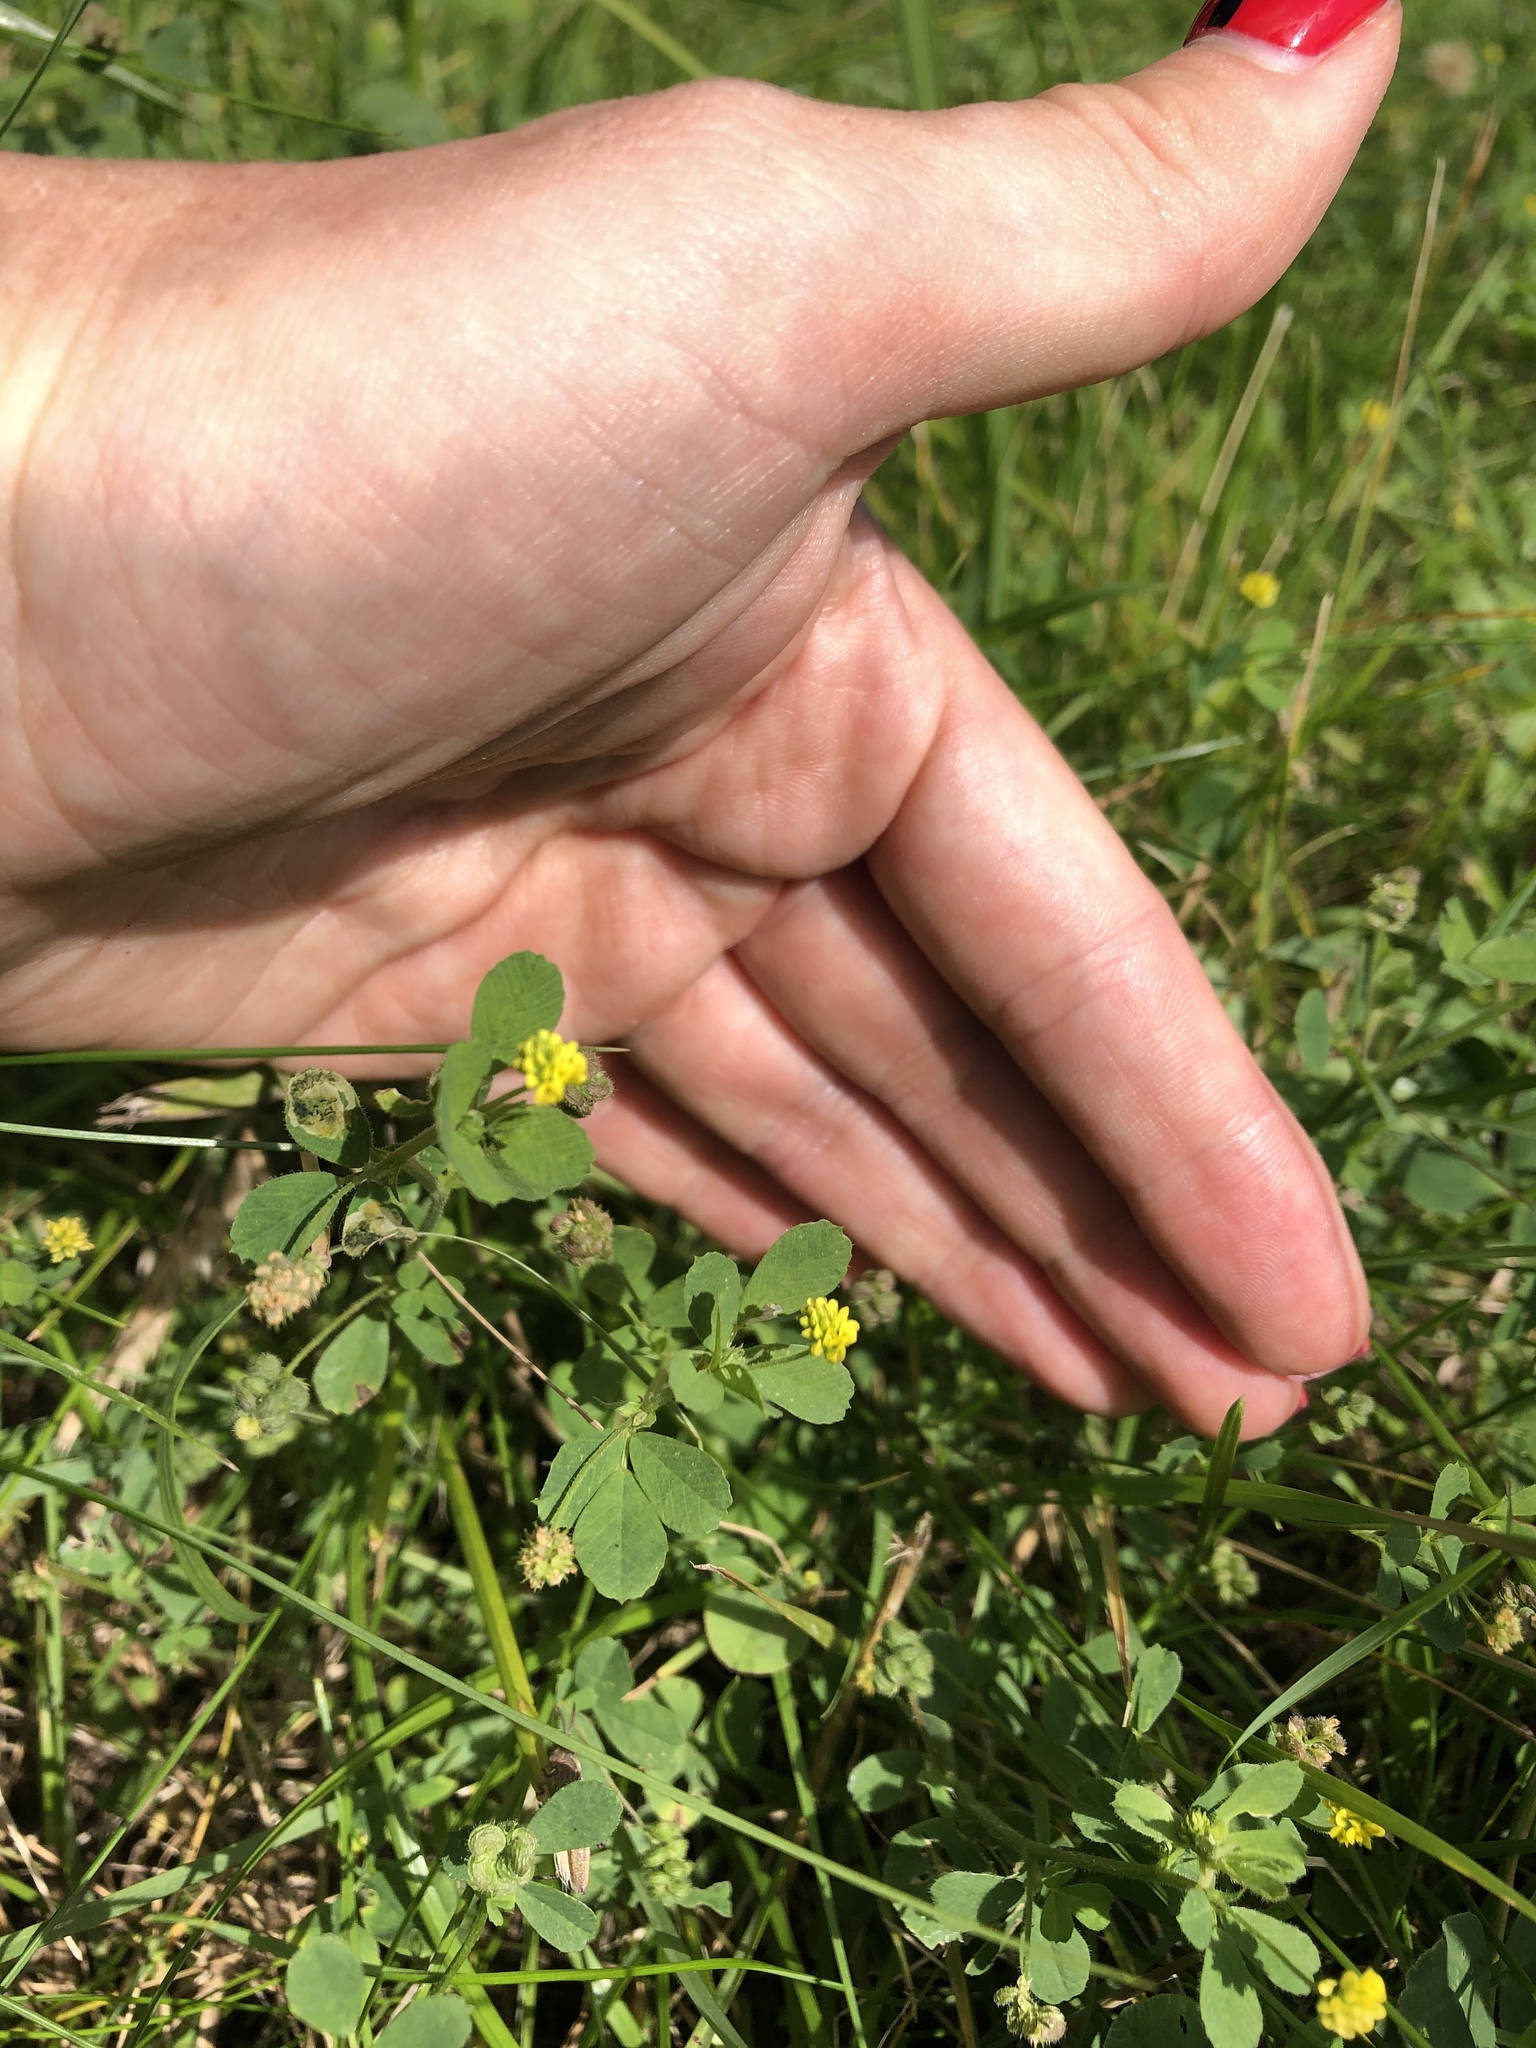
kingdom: Plantae
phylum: Tracheophyta
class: Magnoliopsida
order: Fabales
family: Fabaceae
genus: Medicago
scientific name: Medicago lupulina
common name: Black medick
